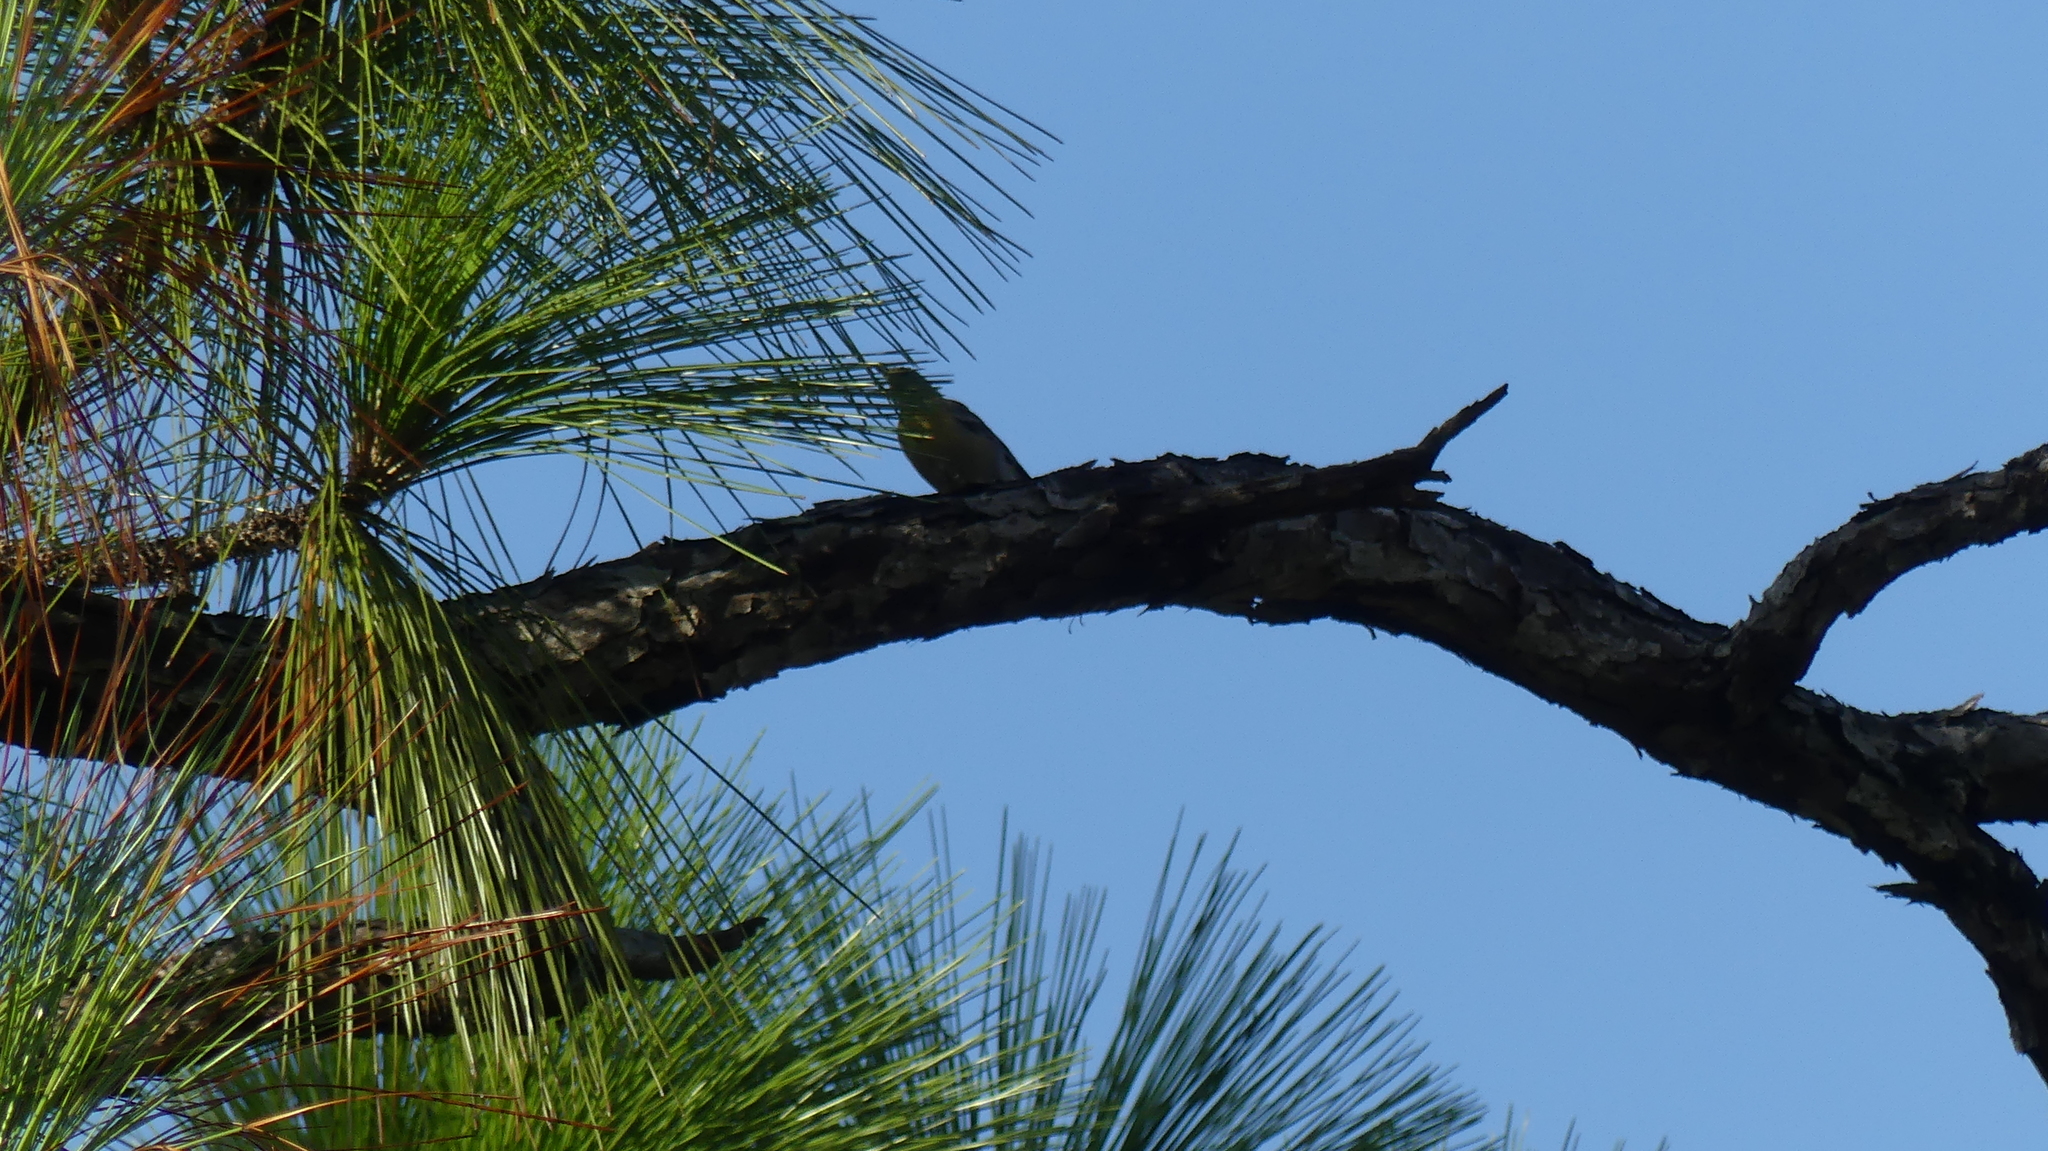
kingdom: Animalia
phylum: Chordata
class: Aves
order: Passeriformes
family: Parulidae
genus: Setophaga
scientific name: Setophaga pinus
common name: Pine warbler
